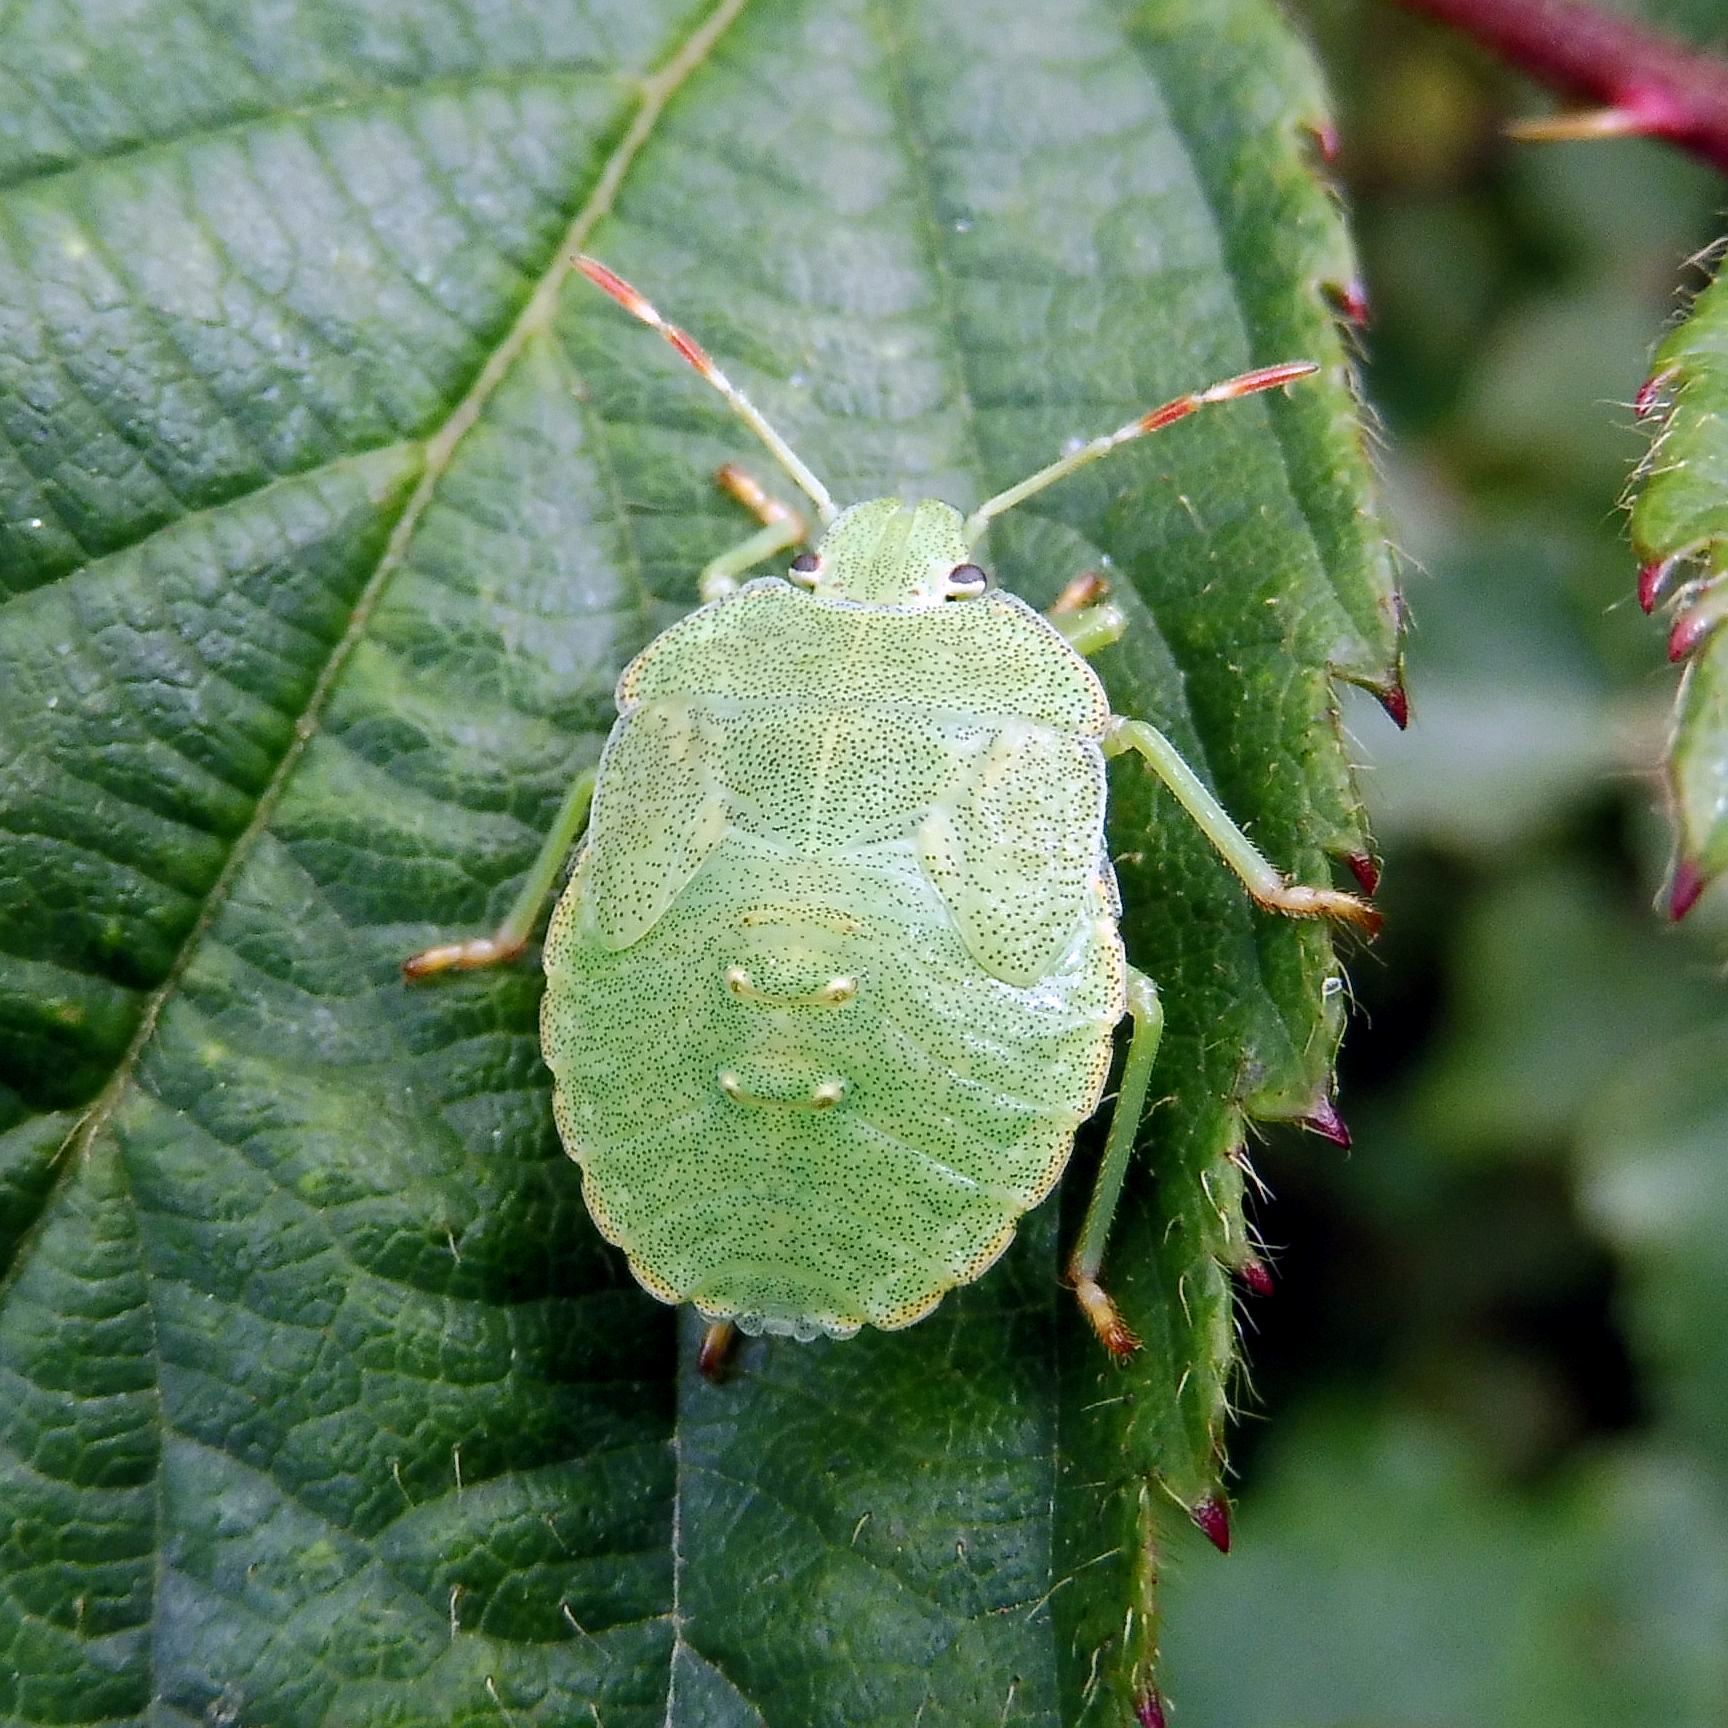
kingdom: Animalia
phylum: Arthropoda
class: Insecta
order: Hemiptera
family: Pentatomidae
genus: Palomena
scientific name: Palomena prasina
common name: Green shieldbug
